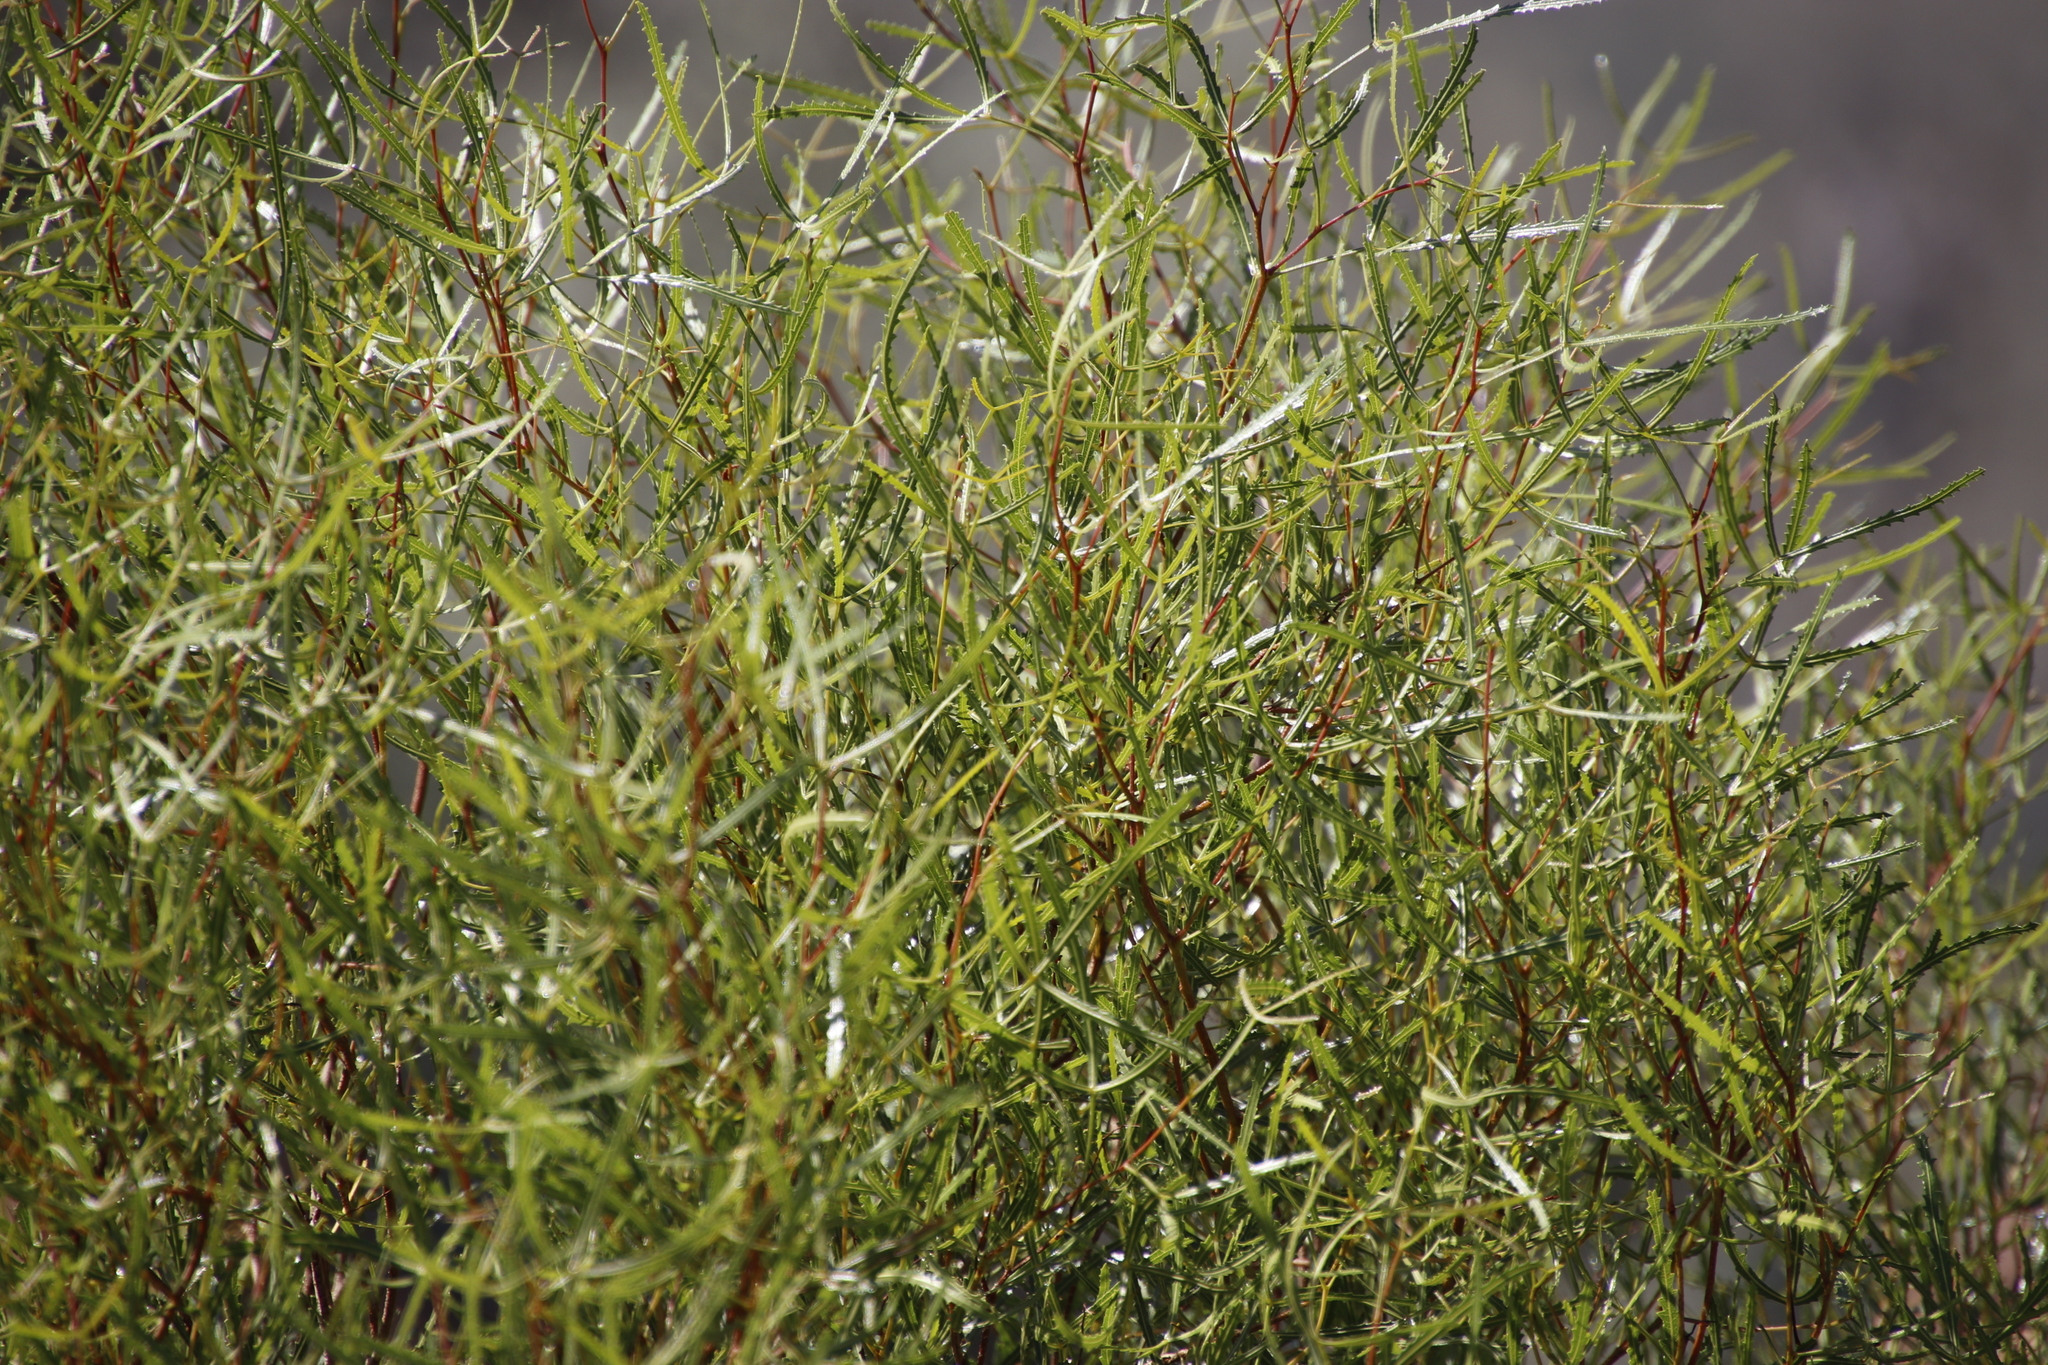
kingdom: Plantae
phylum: Tracheophyta
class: Magnoliopsida
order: Sapindales
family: Anacardiaceae
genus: Searsia
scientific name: Searsia erosa
